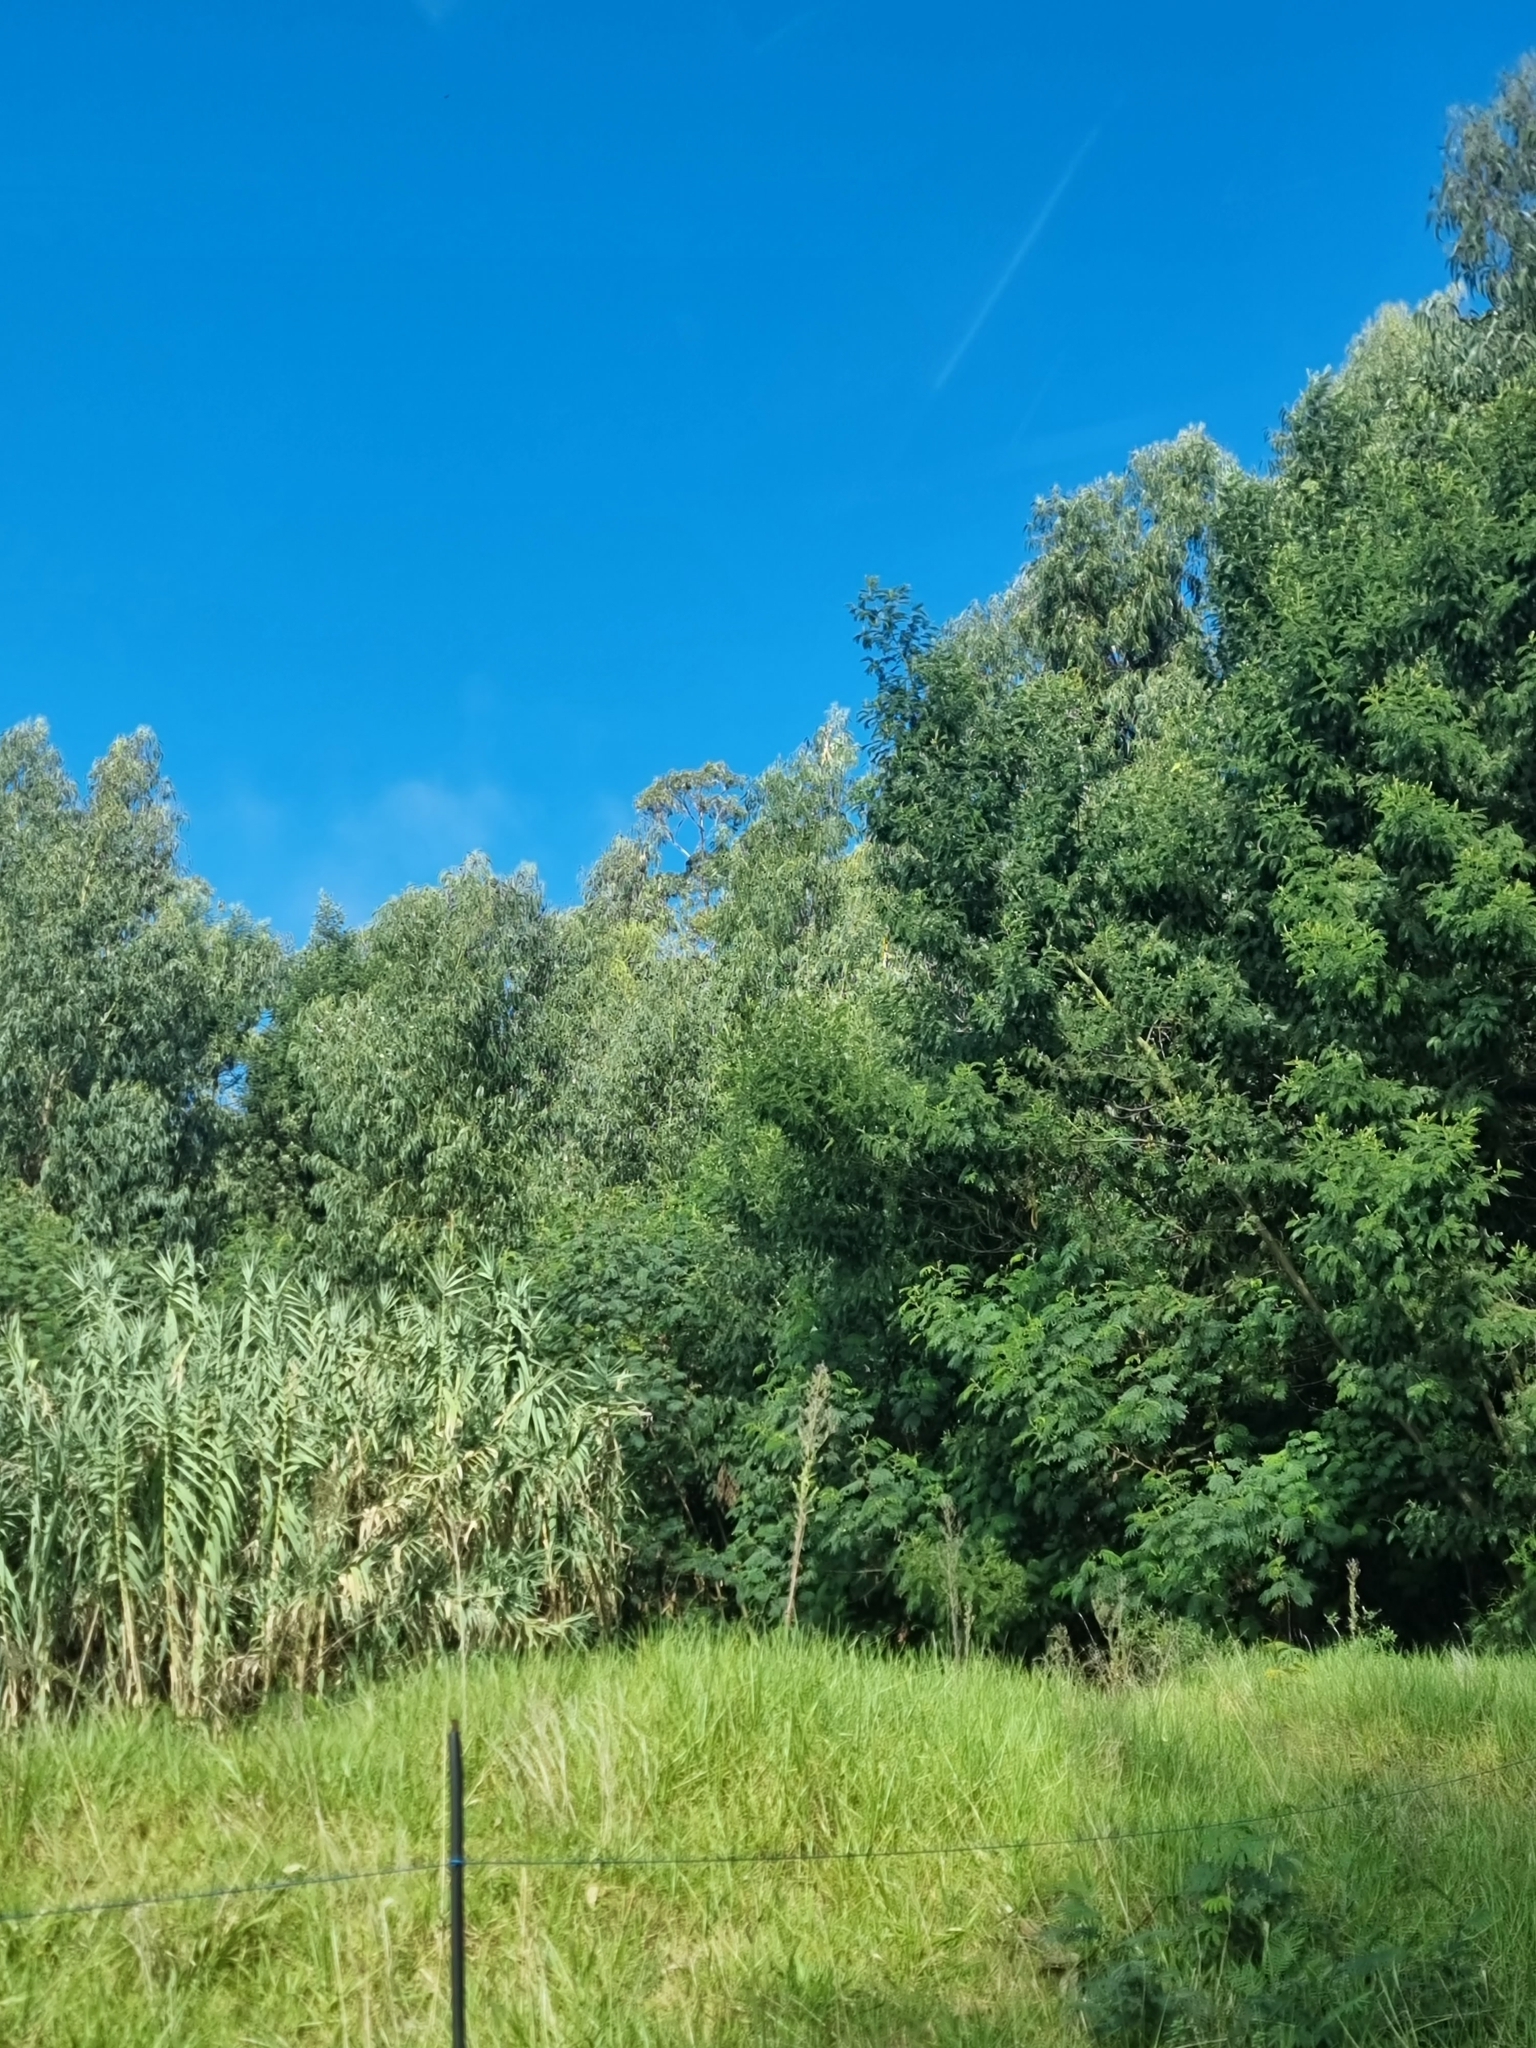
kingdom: Plantae
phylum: Tracheophyta
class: Magnoliopsida
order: Fabales
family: Fabaceae
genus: Acacia
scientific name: Acacia mearnsii
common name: Black wattle
